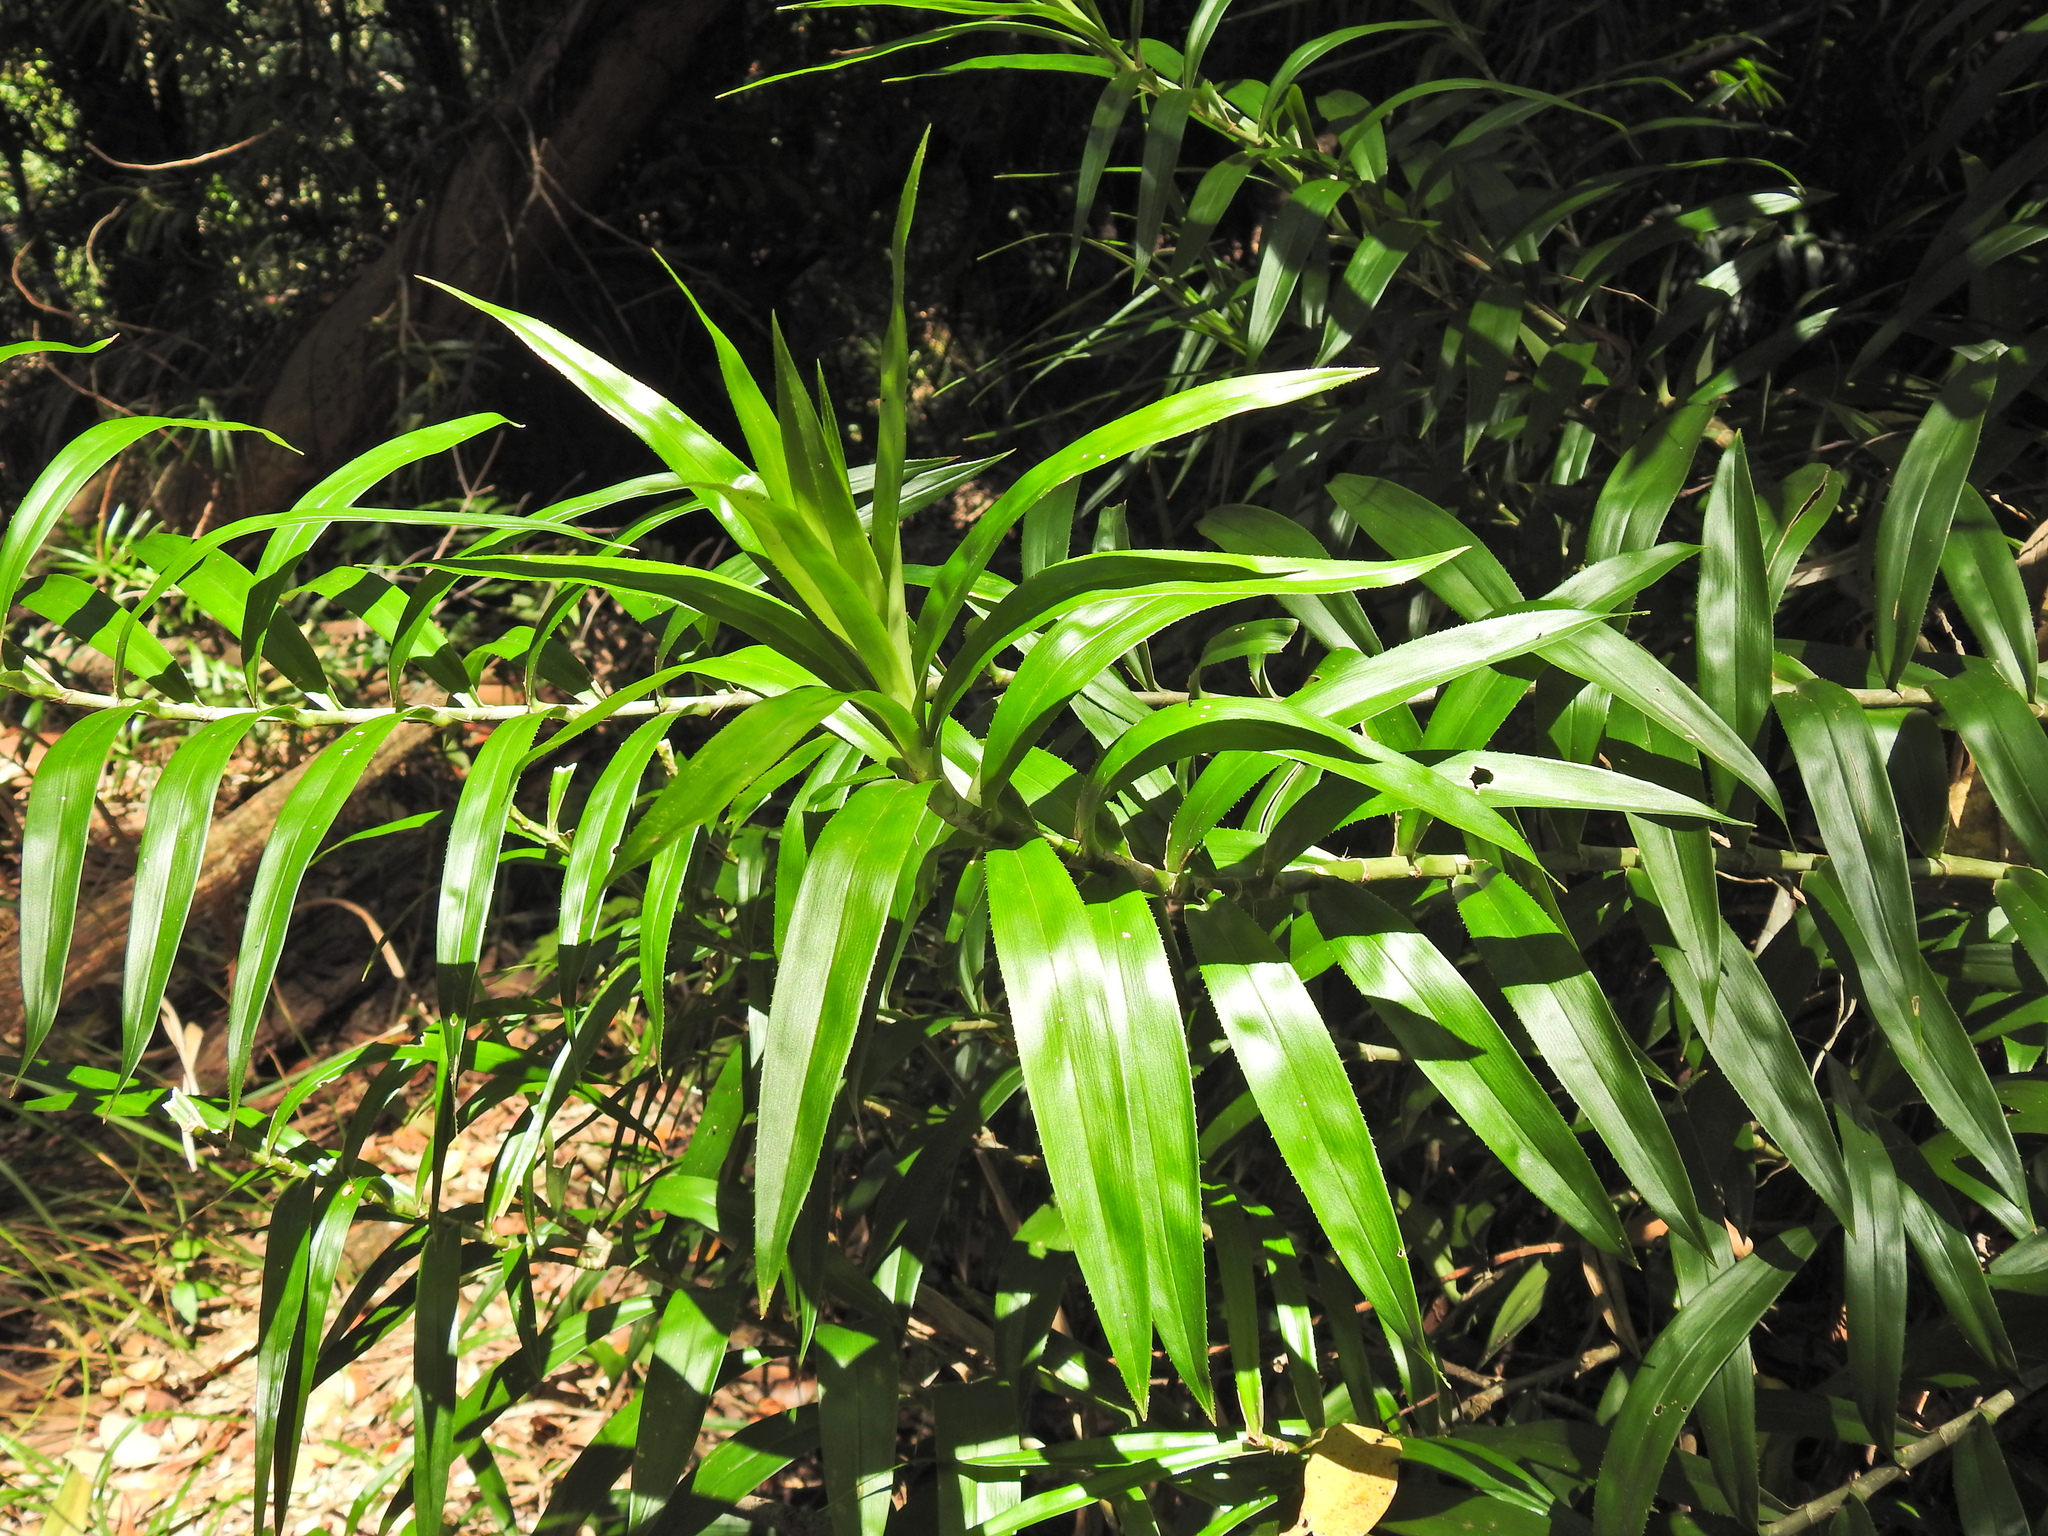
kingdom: Plantae
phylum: Tracheophyta
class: Liliopsida
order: Pandanales
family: Pandanaceae
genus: Freycinetia
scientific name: Freycinetia scandens
